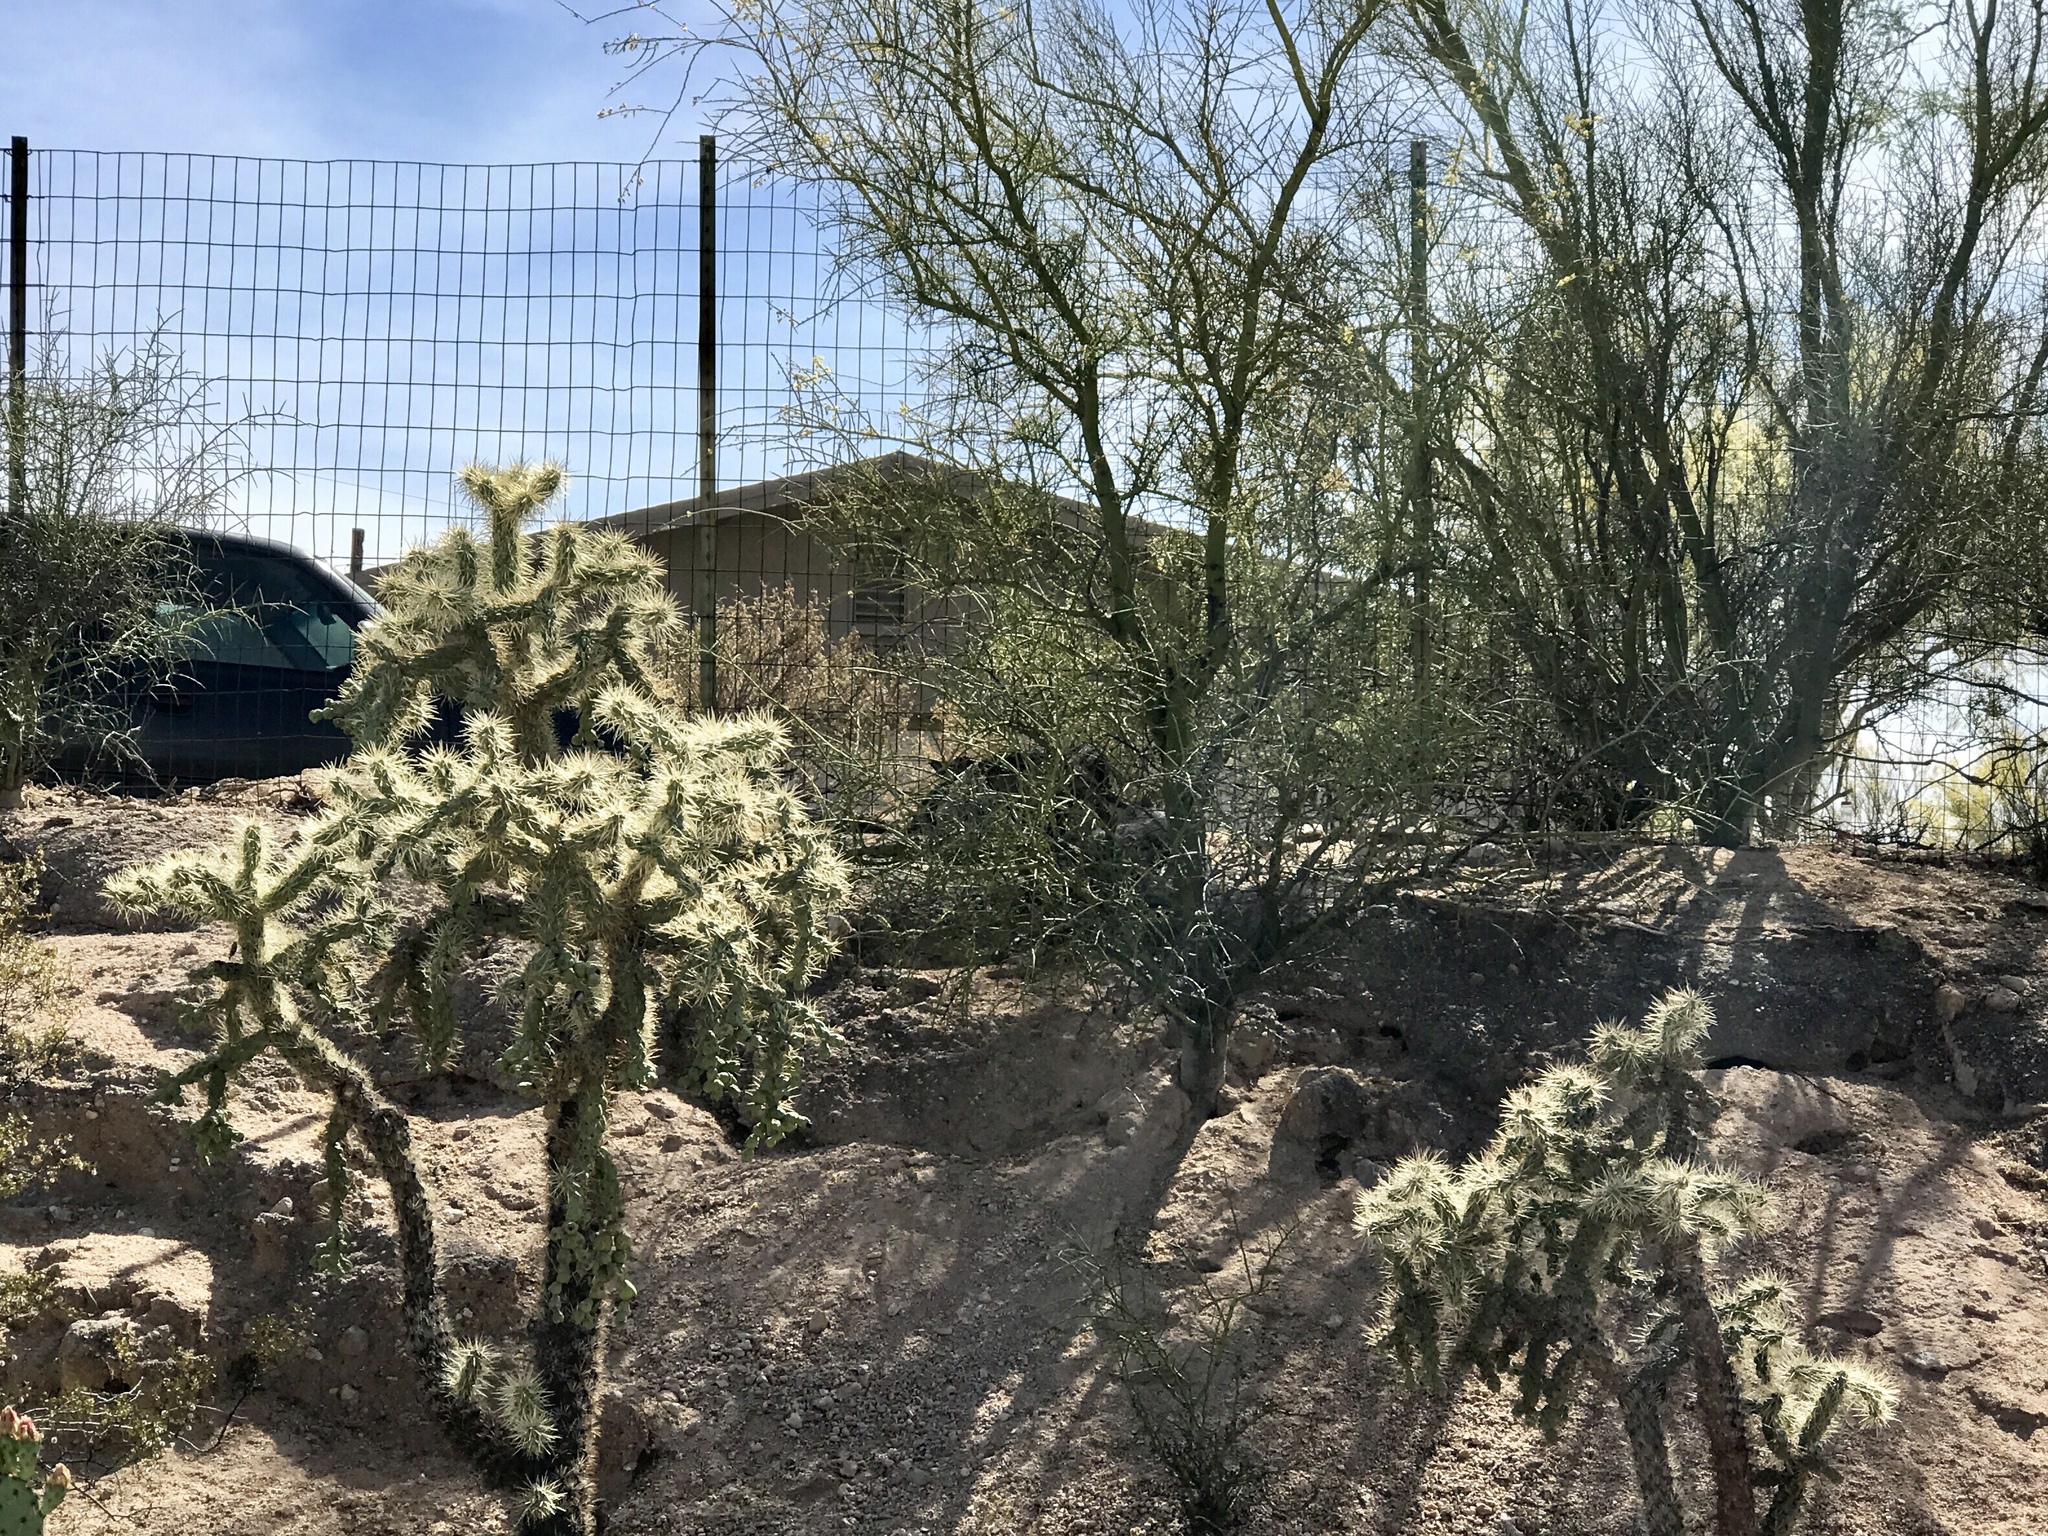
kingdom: Plantae
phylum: Tracheophyta
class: Magnoliopsida
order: Caryophyllales
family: Cactaceae
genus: Cylindropuntia
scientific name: Cylindropuntia fulgida
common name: Jumping cholla
